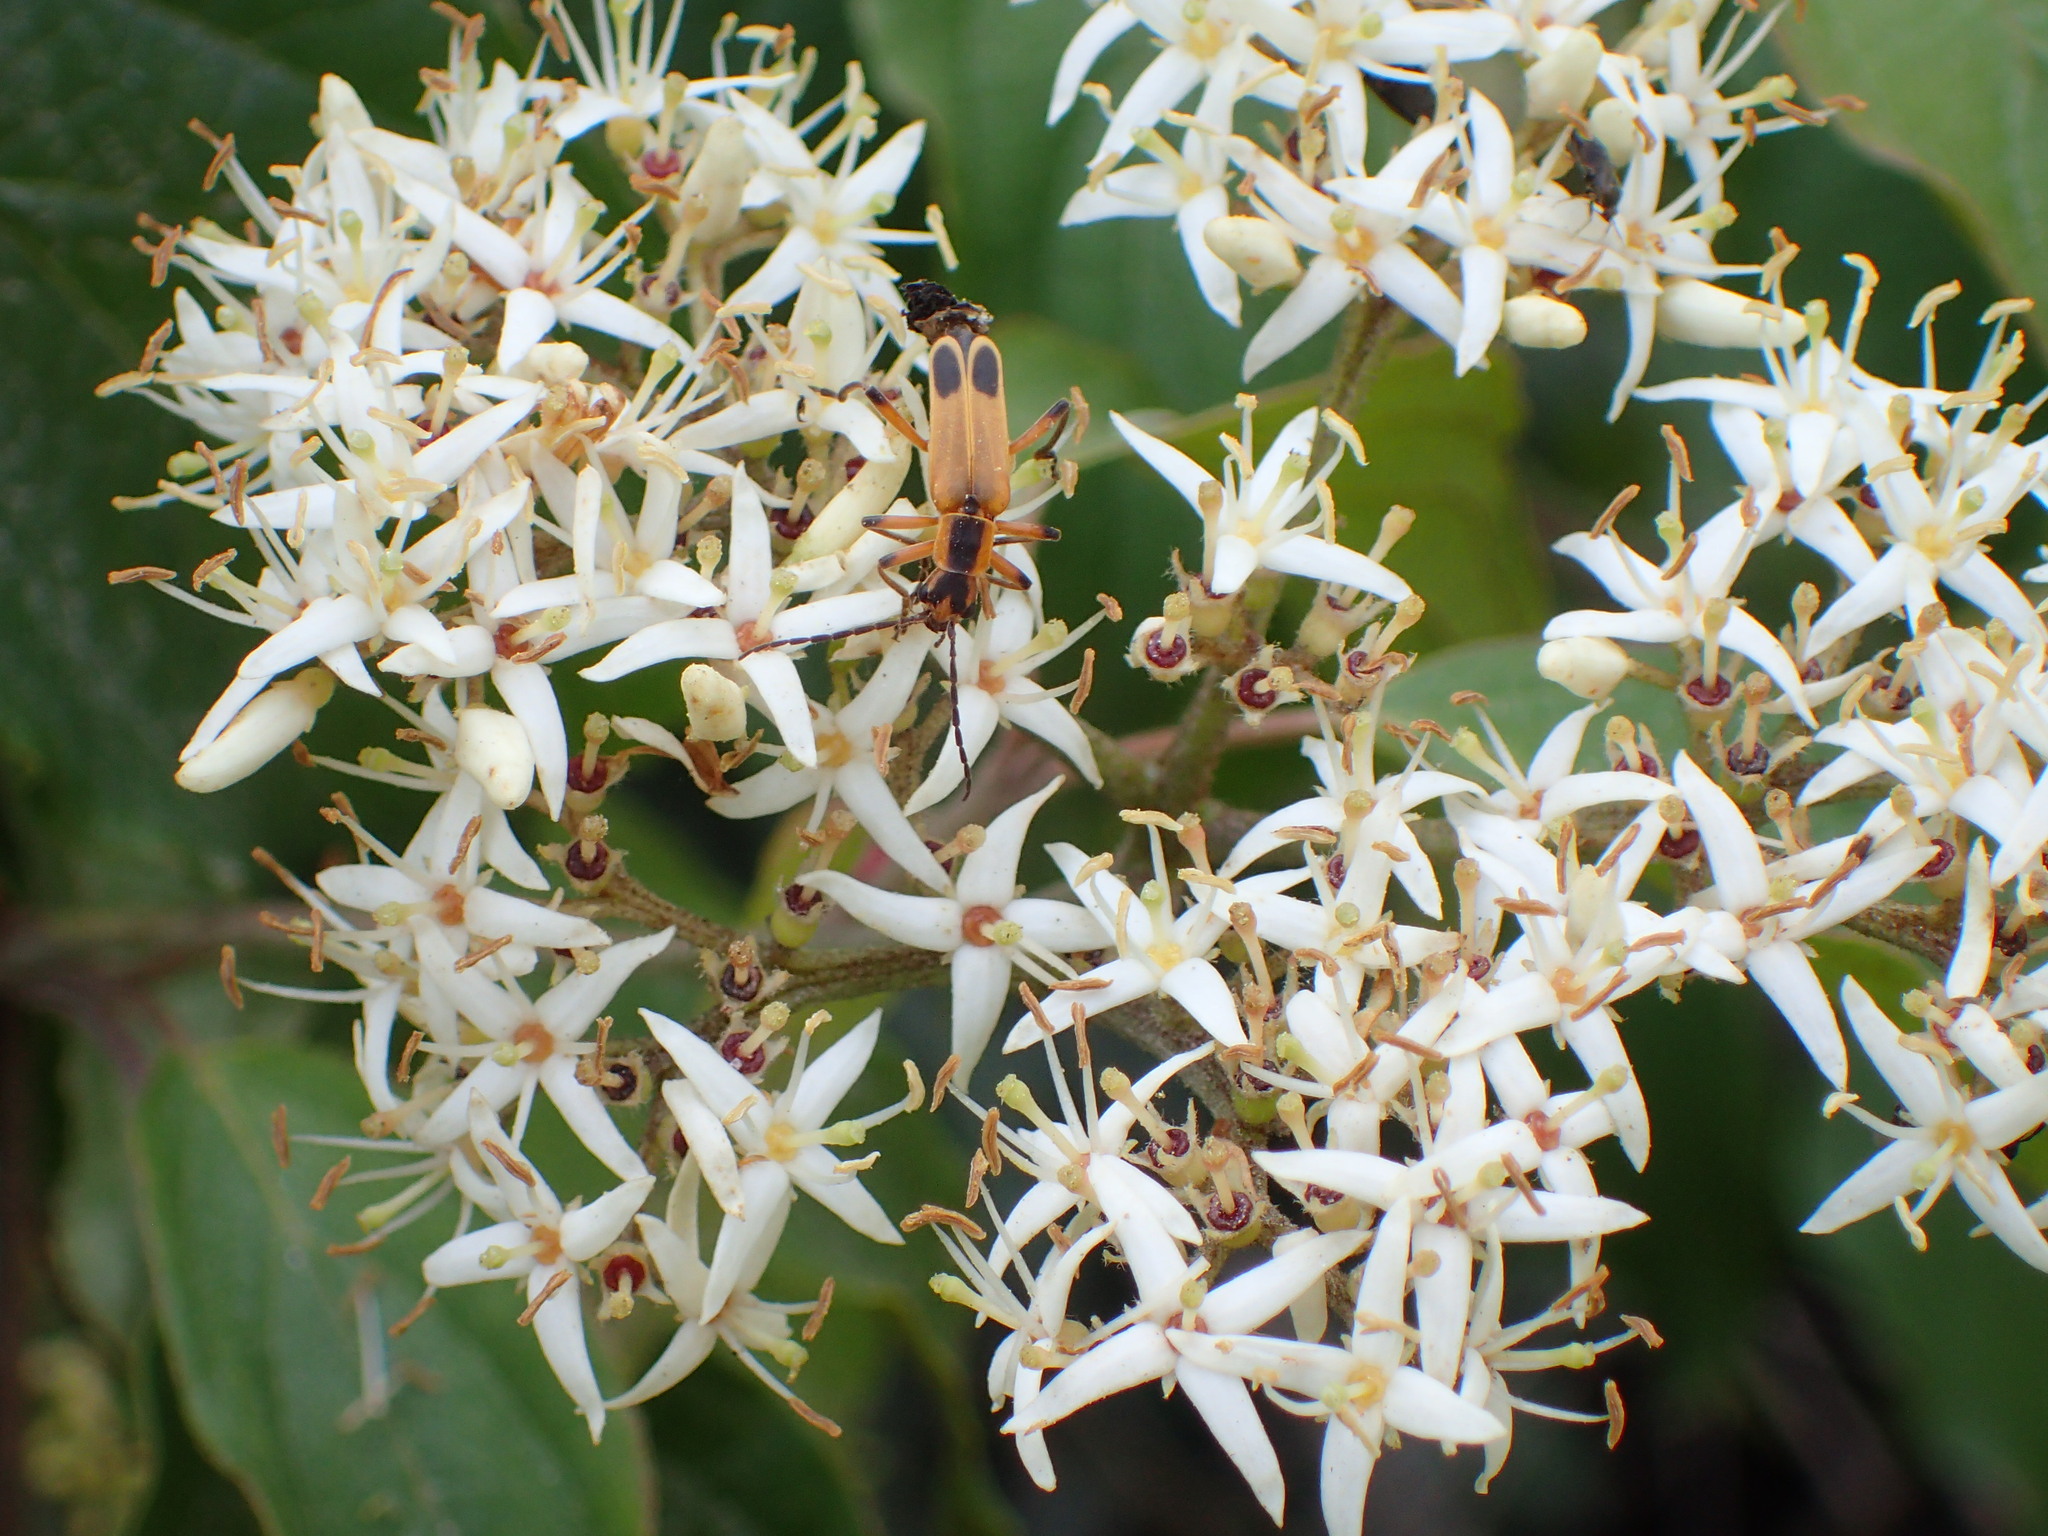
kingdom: Animalia
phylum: Arthropoda
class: Insecta
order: Coleoptera
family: Cantharidae
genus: Chauliognathus
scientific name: Chauliognathus marginatus
